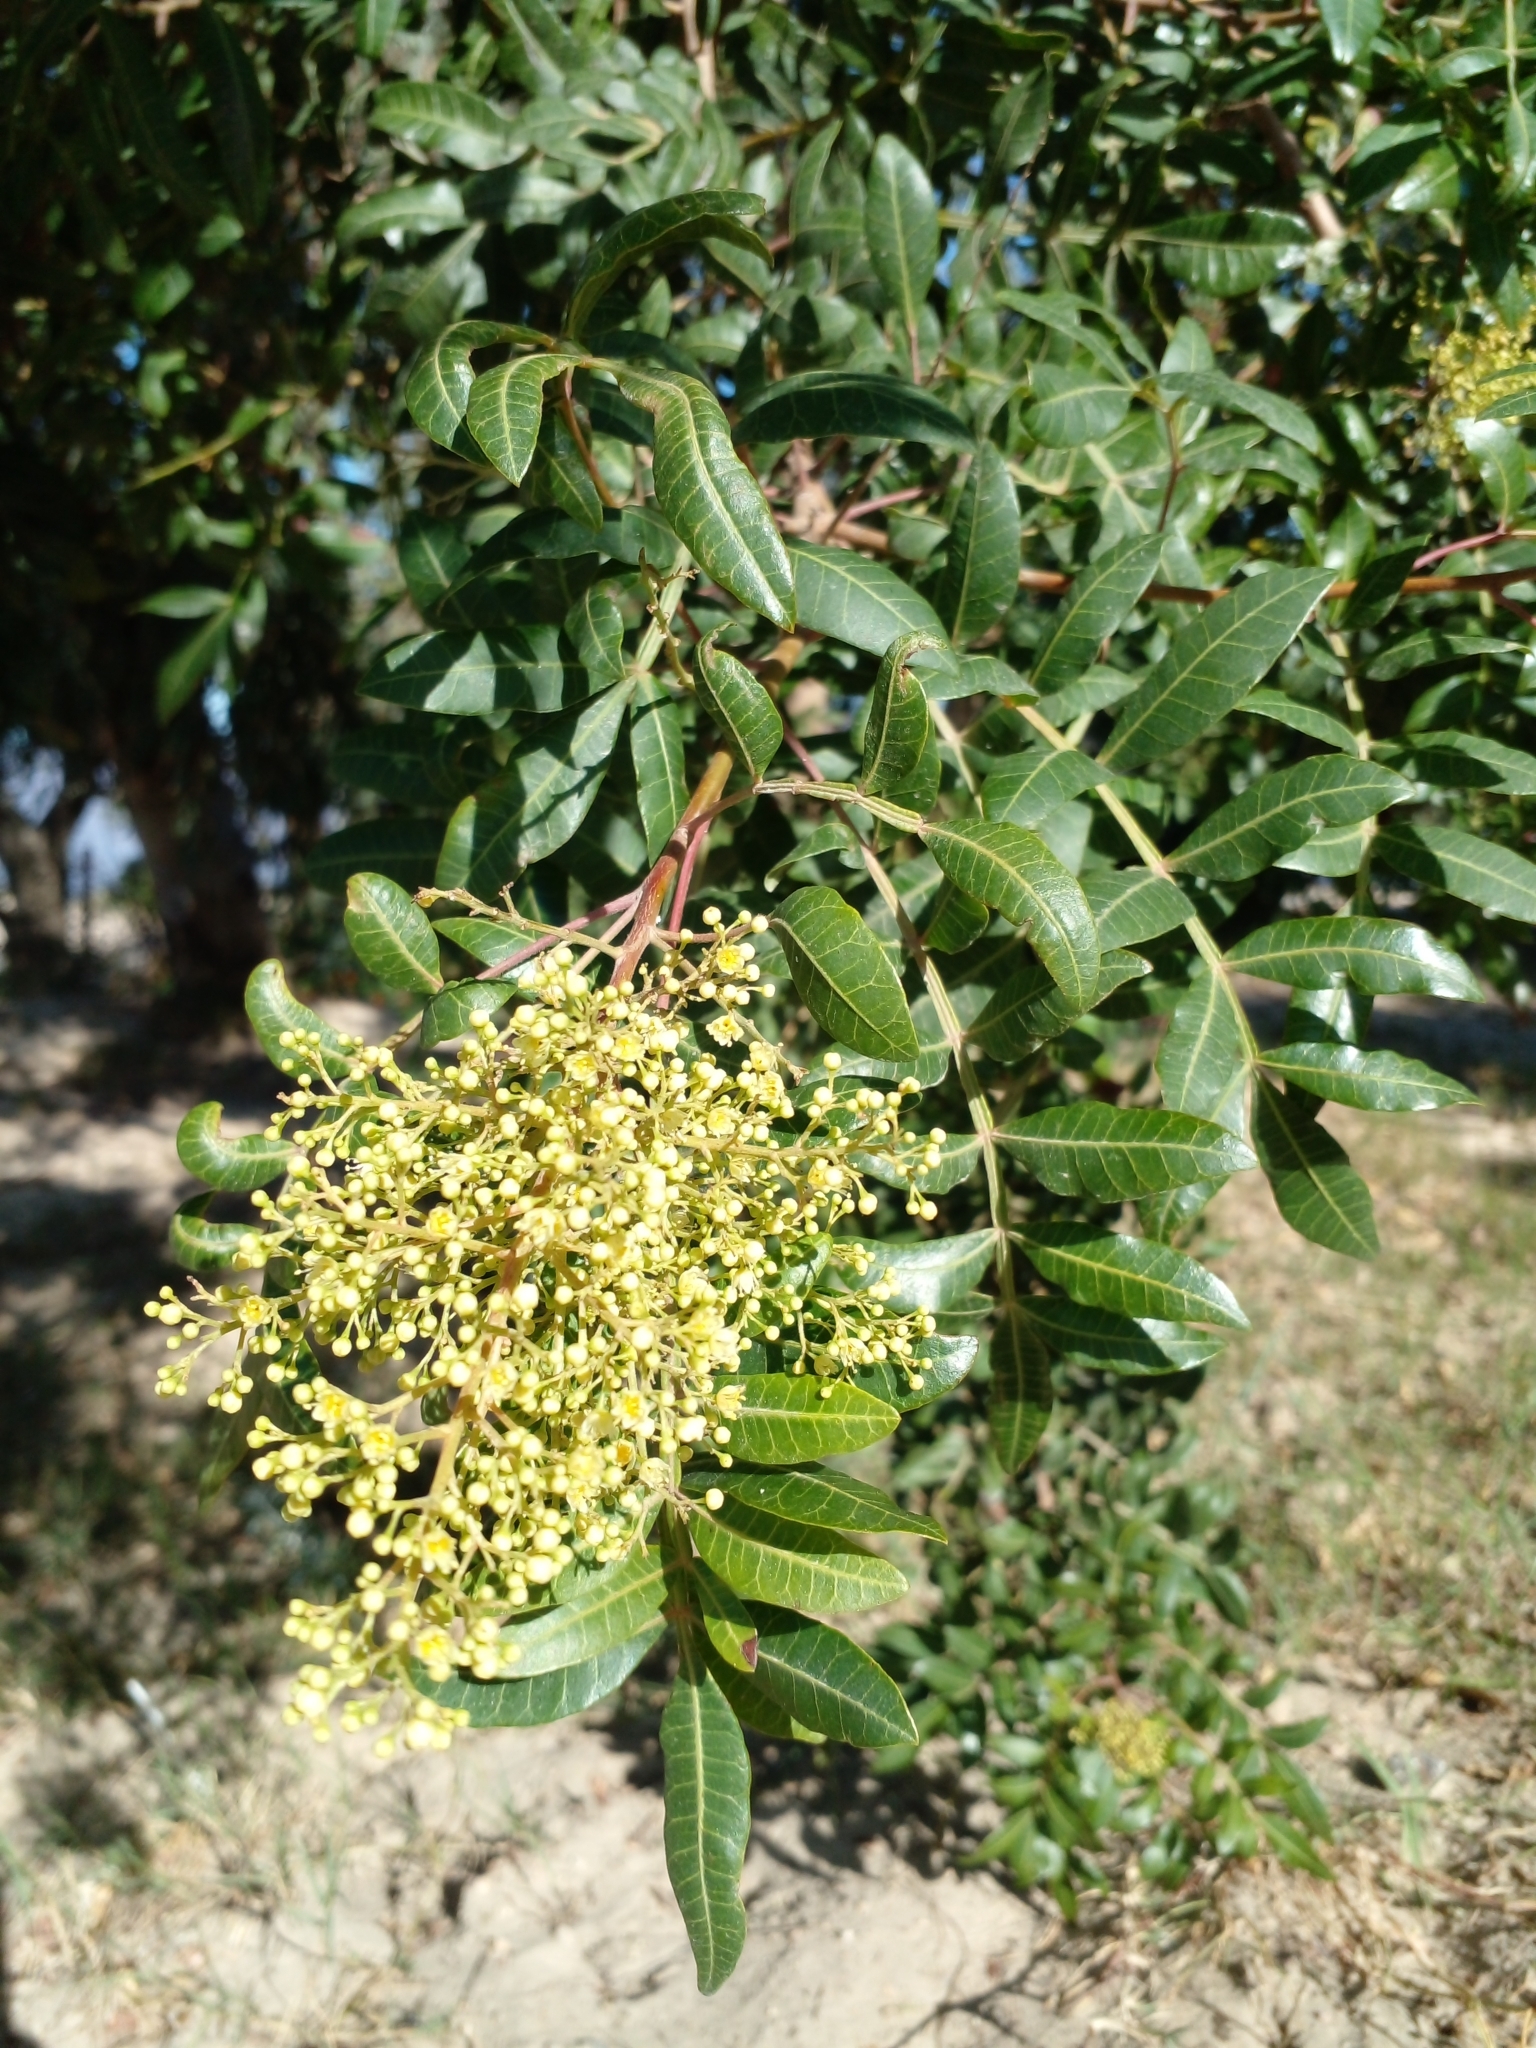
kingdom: Plantae
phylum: Tracheophyta
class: Magnoliopsida
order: Sapindales
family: Anacardiaceae
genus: Schinus
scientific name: Schinus terebinthifolia
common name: Brazilian peppertree
